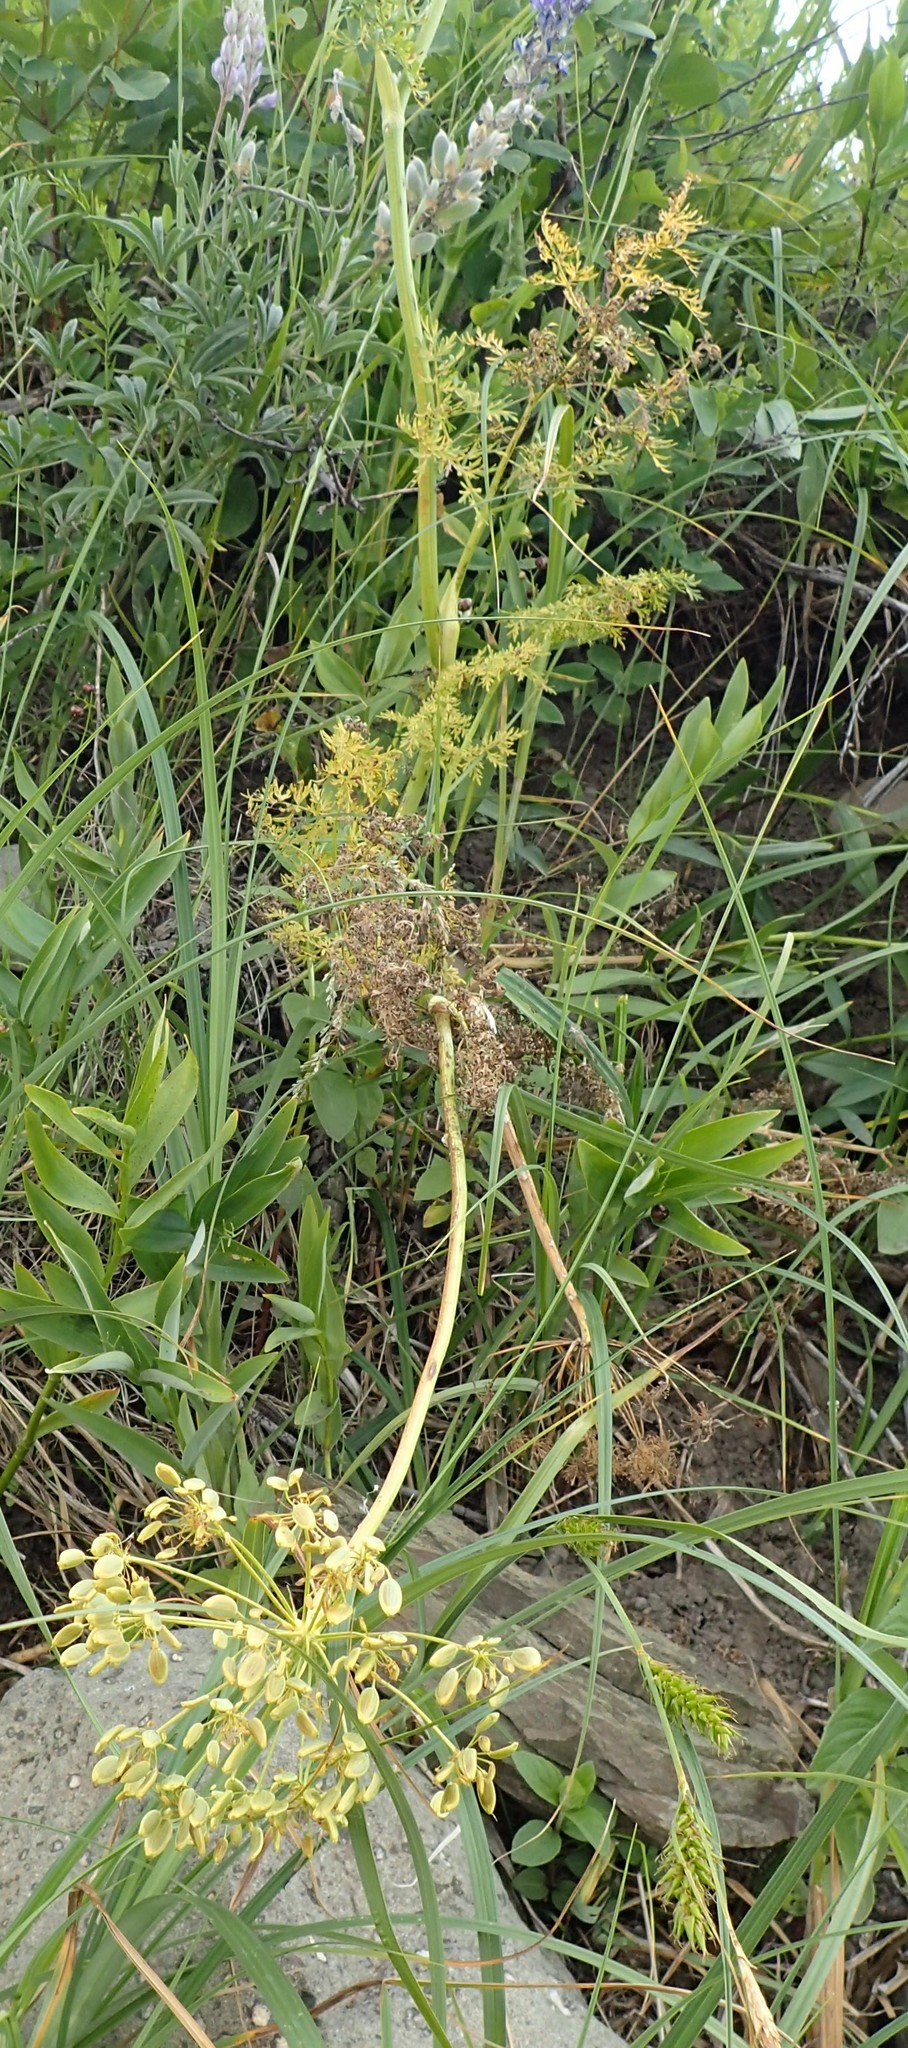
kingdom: Plantae
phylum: Tracheophyta
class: Magnoliopsida
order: Apiales
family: Apiaceae
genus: Lomatium
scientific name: Lomatium multifidum
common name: Carrot-leaved biscuitroot
